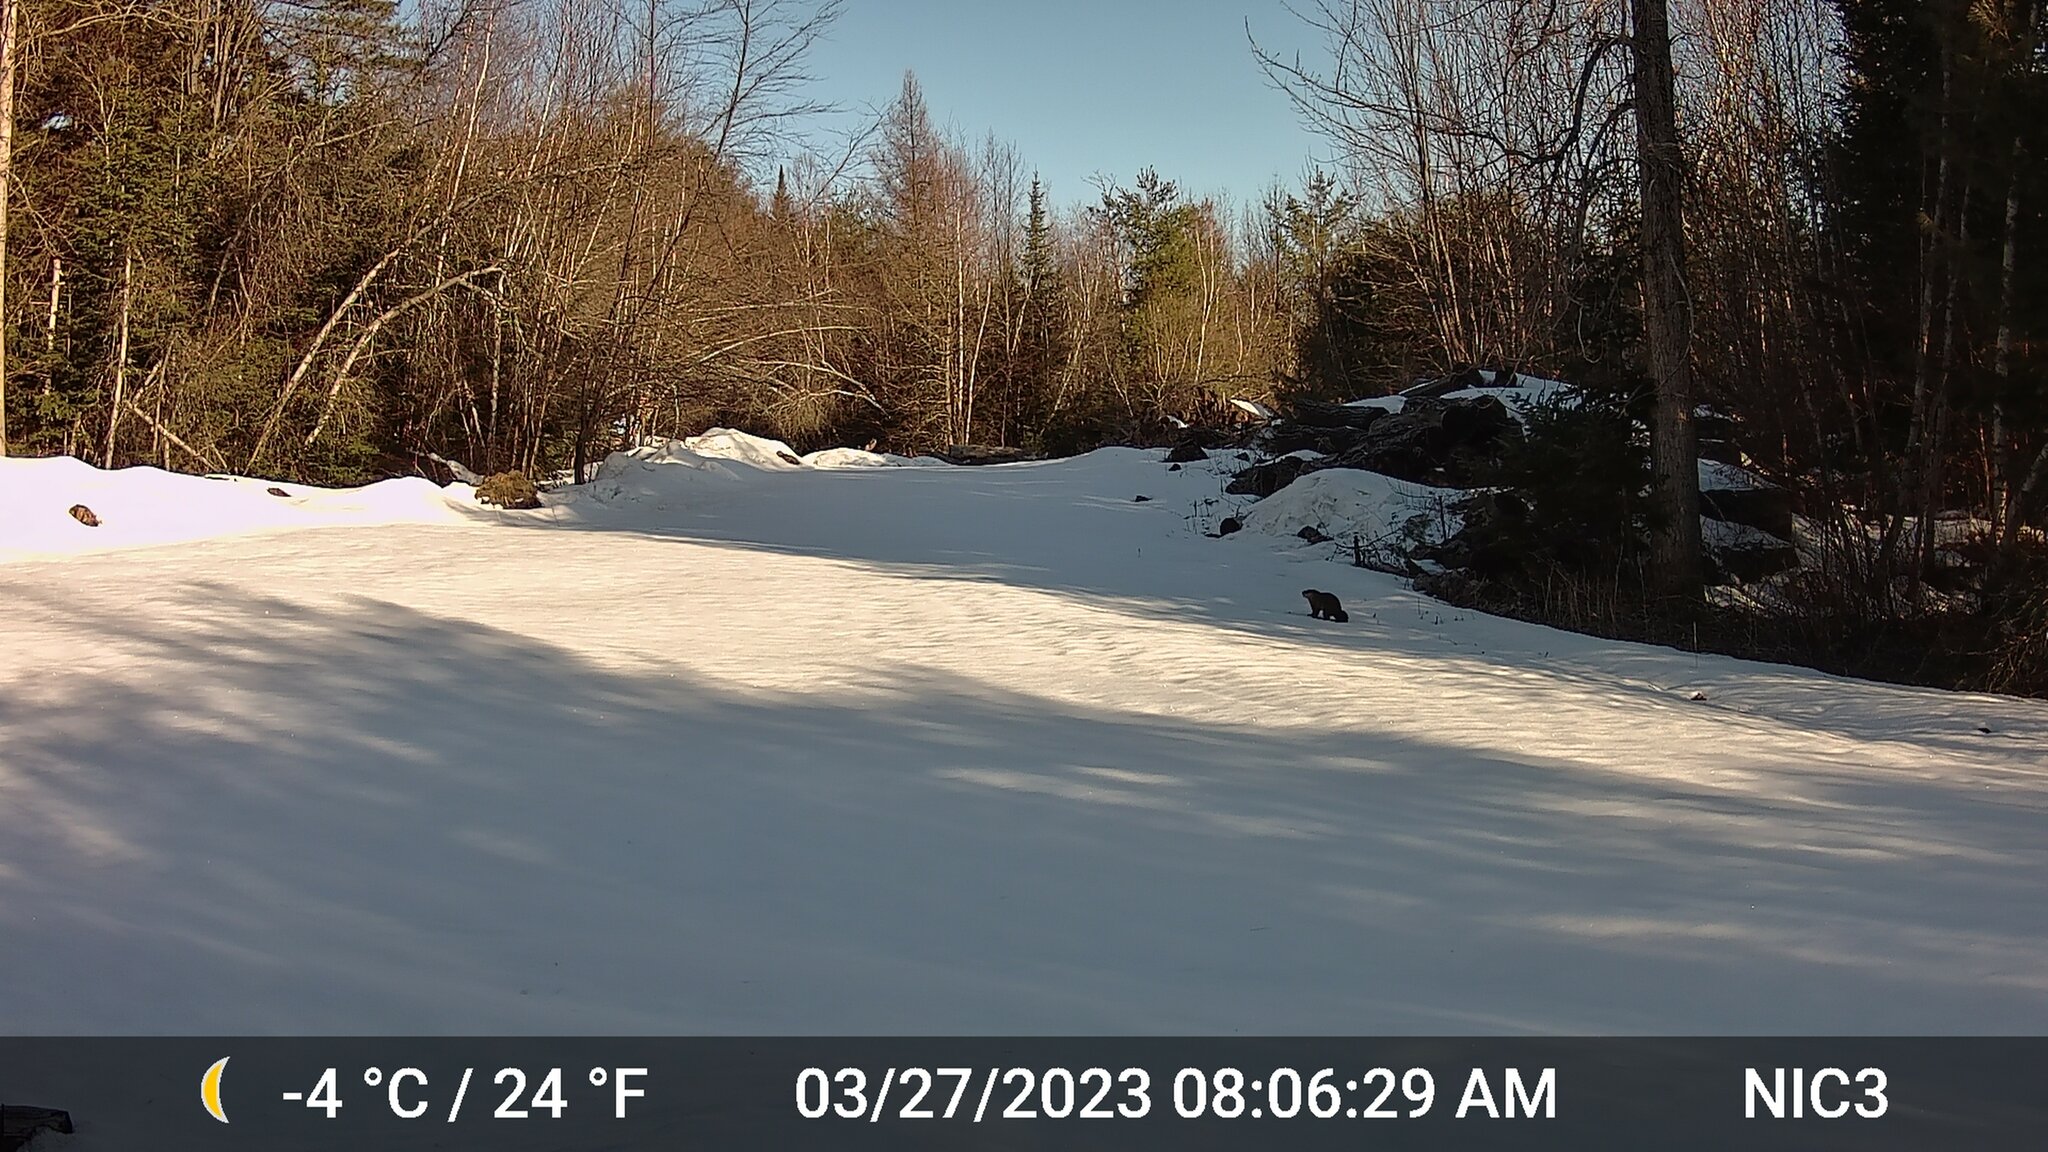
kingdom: Animalia
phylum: Chordata
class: Mammalia
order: Rodentia
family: Sciuridae
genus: Marmota
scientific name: Marmota monax
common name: Groundhog
